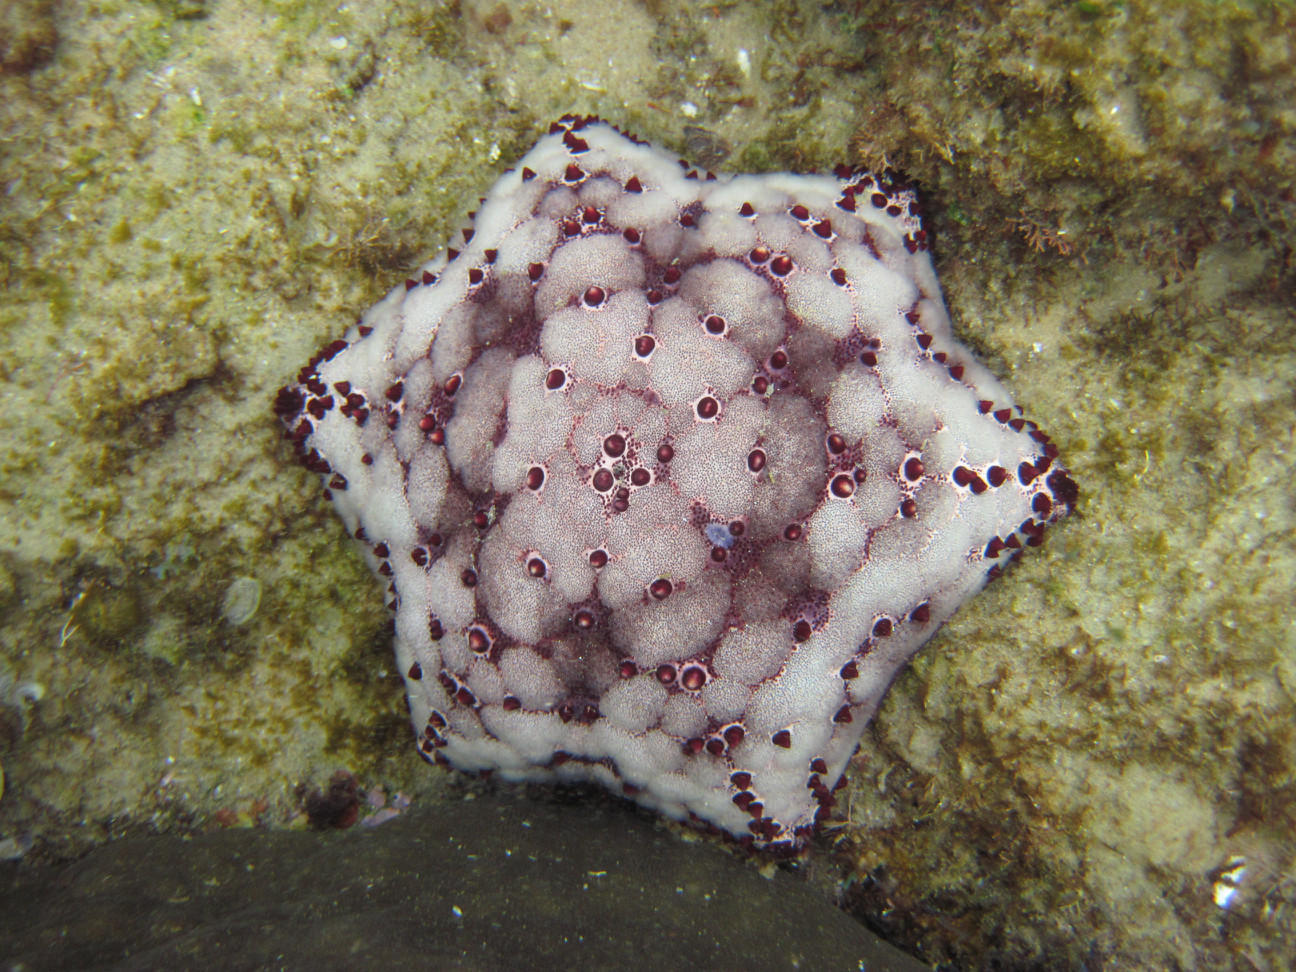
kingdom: Animalia
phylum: Echinodermata
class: Asteroidea
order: Valvatida
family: Oreasteridae
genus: Culcita
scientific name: Culcita schmideliana
